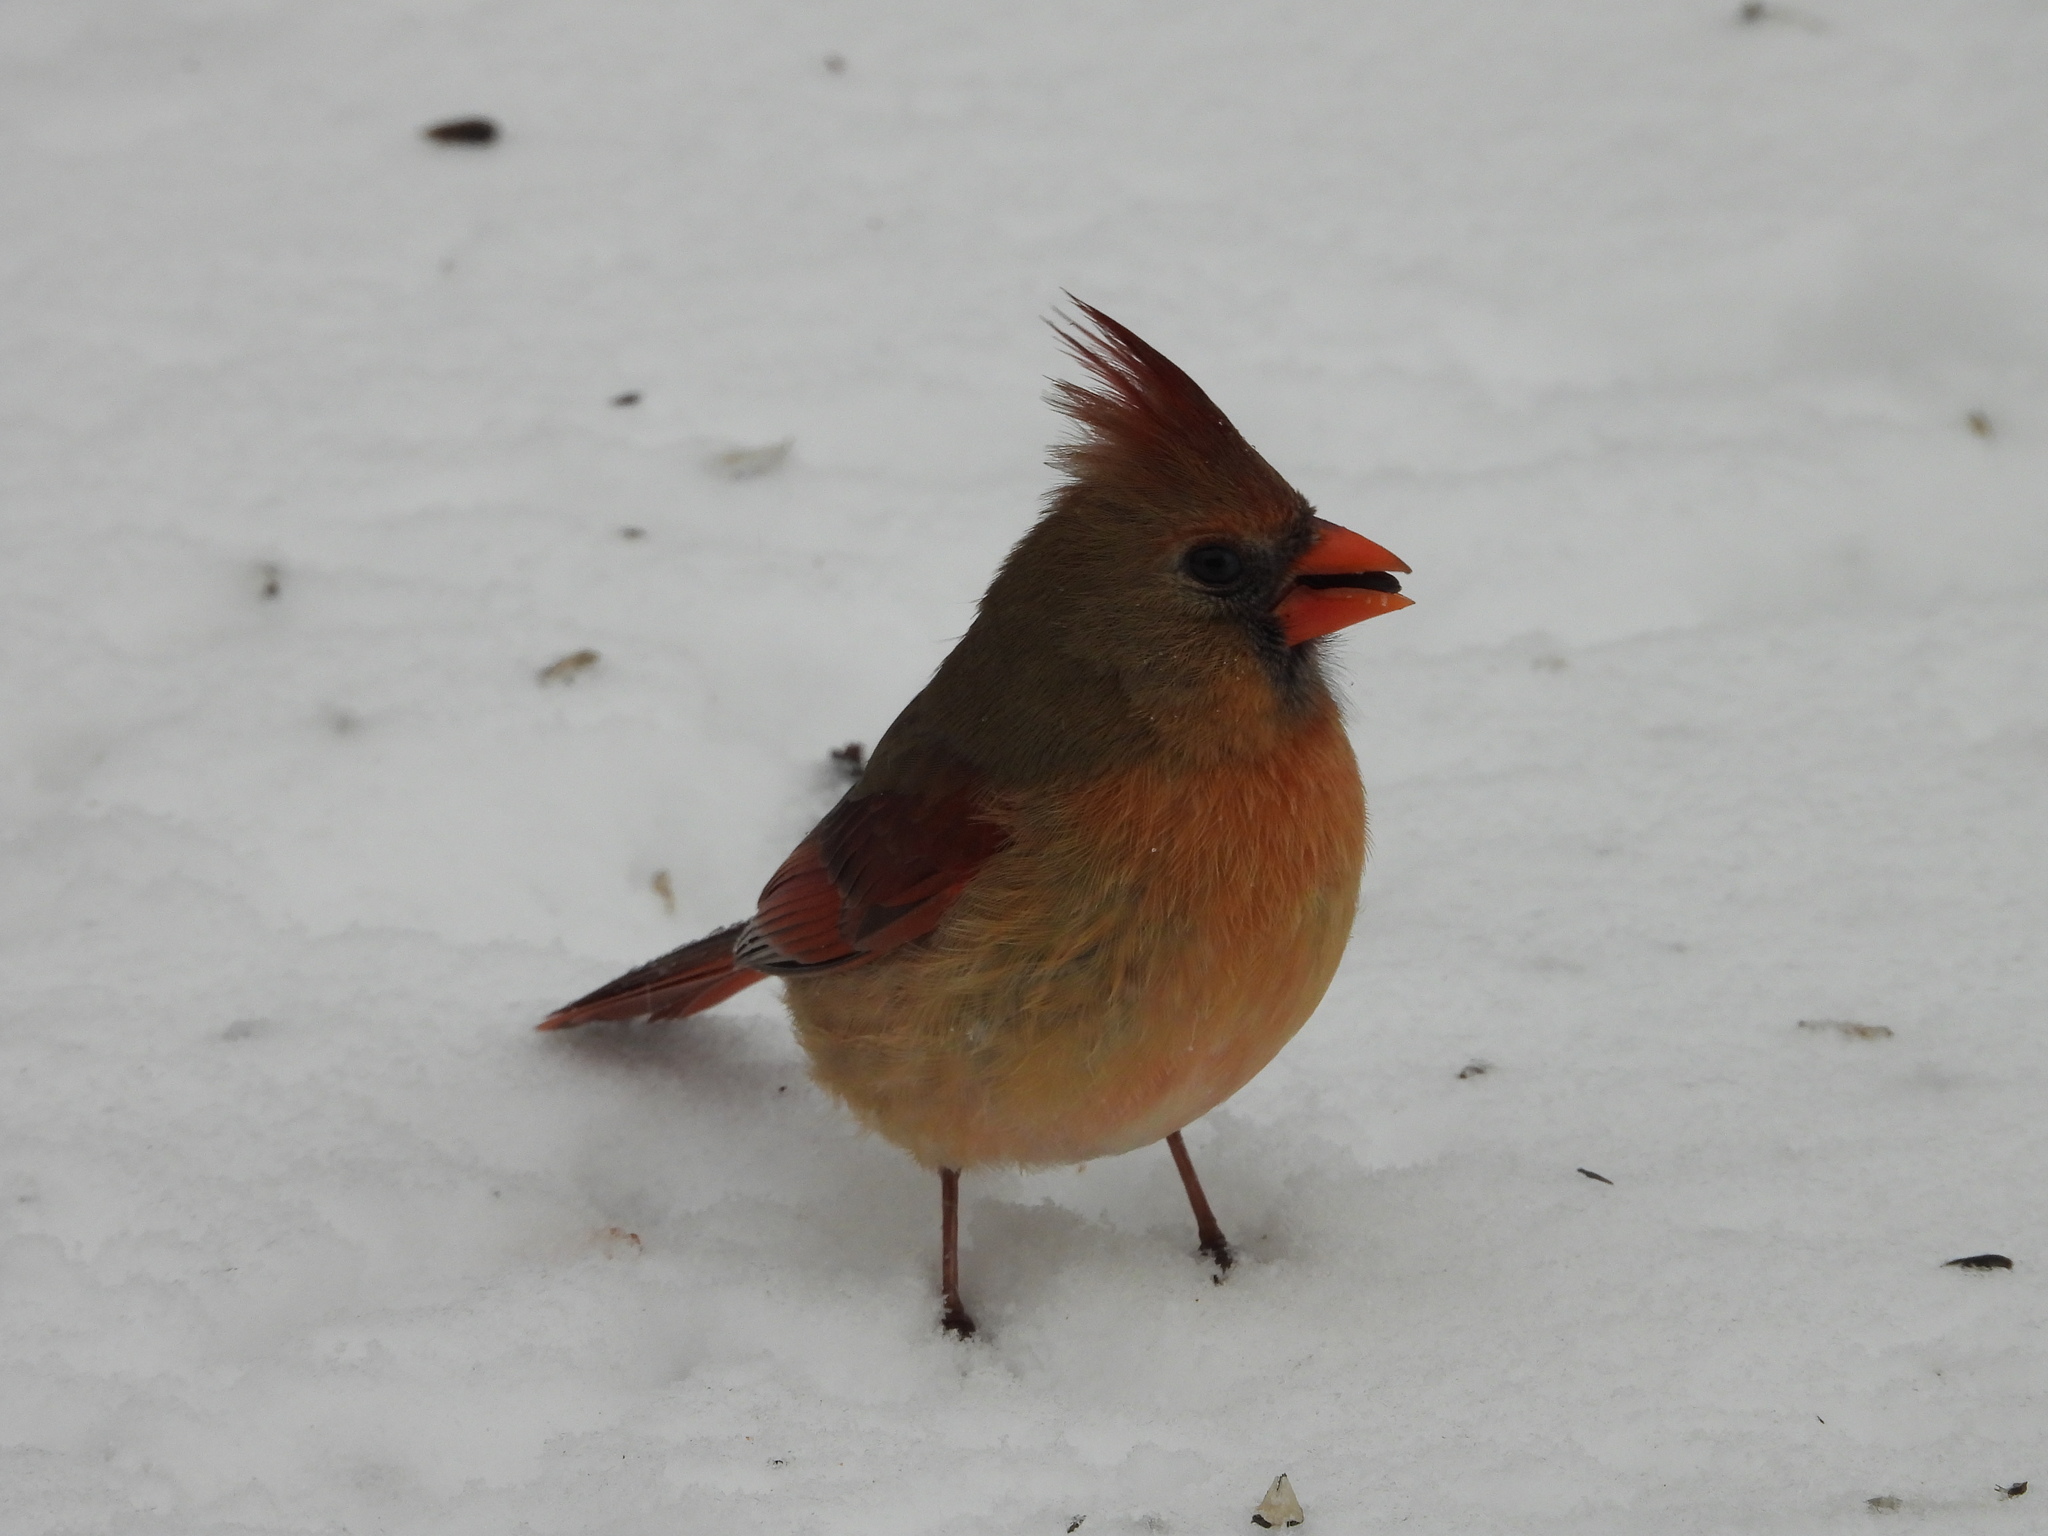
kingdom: Animalia
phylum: Chordata
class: Aves
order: Passeriformes
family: Cardinalidae
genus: Cardinalis
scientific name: Cardinalis cardinalis
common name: Northern cardinal
